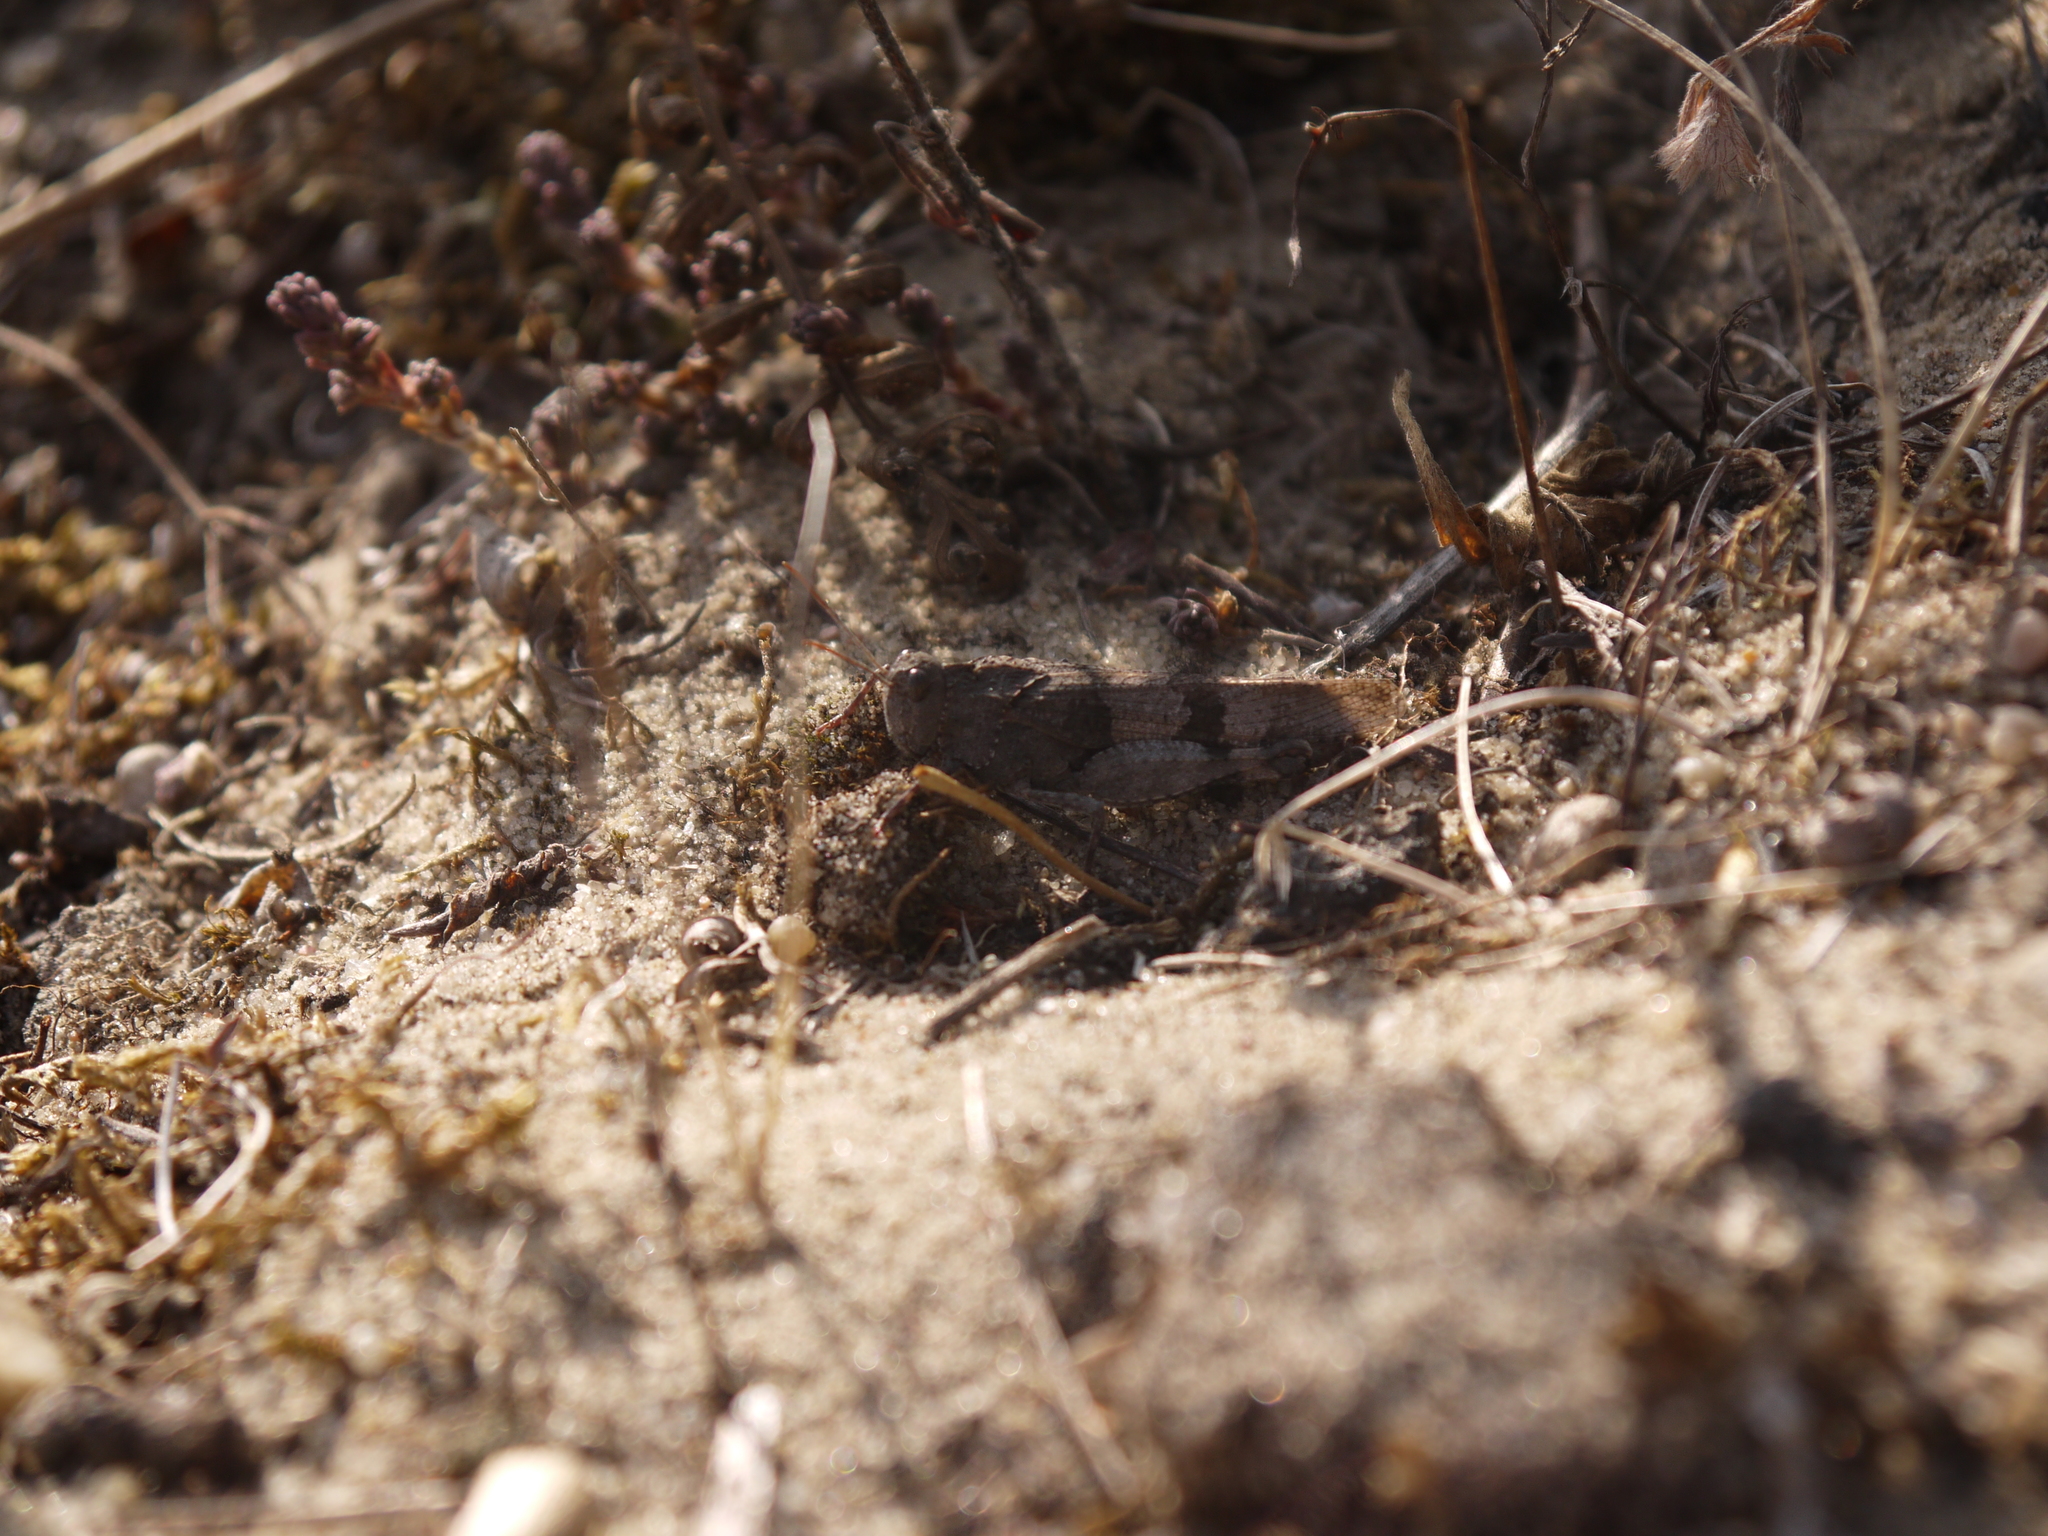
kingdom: Animalia
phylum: Arthropoda
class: Insecta
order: Orthoptera
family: Acrididae
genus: Oedipoda
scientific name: Oedipoda caerulescens
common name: Blue-winged grasshopper
